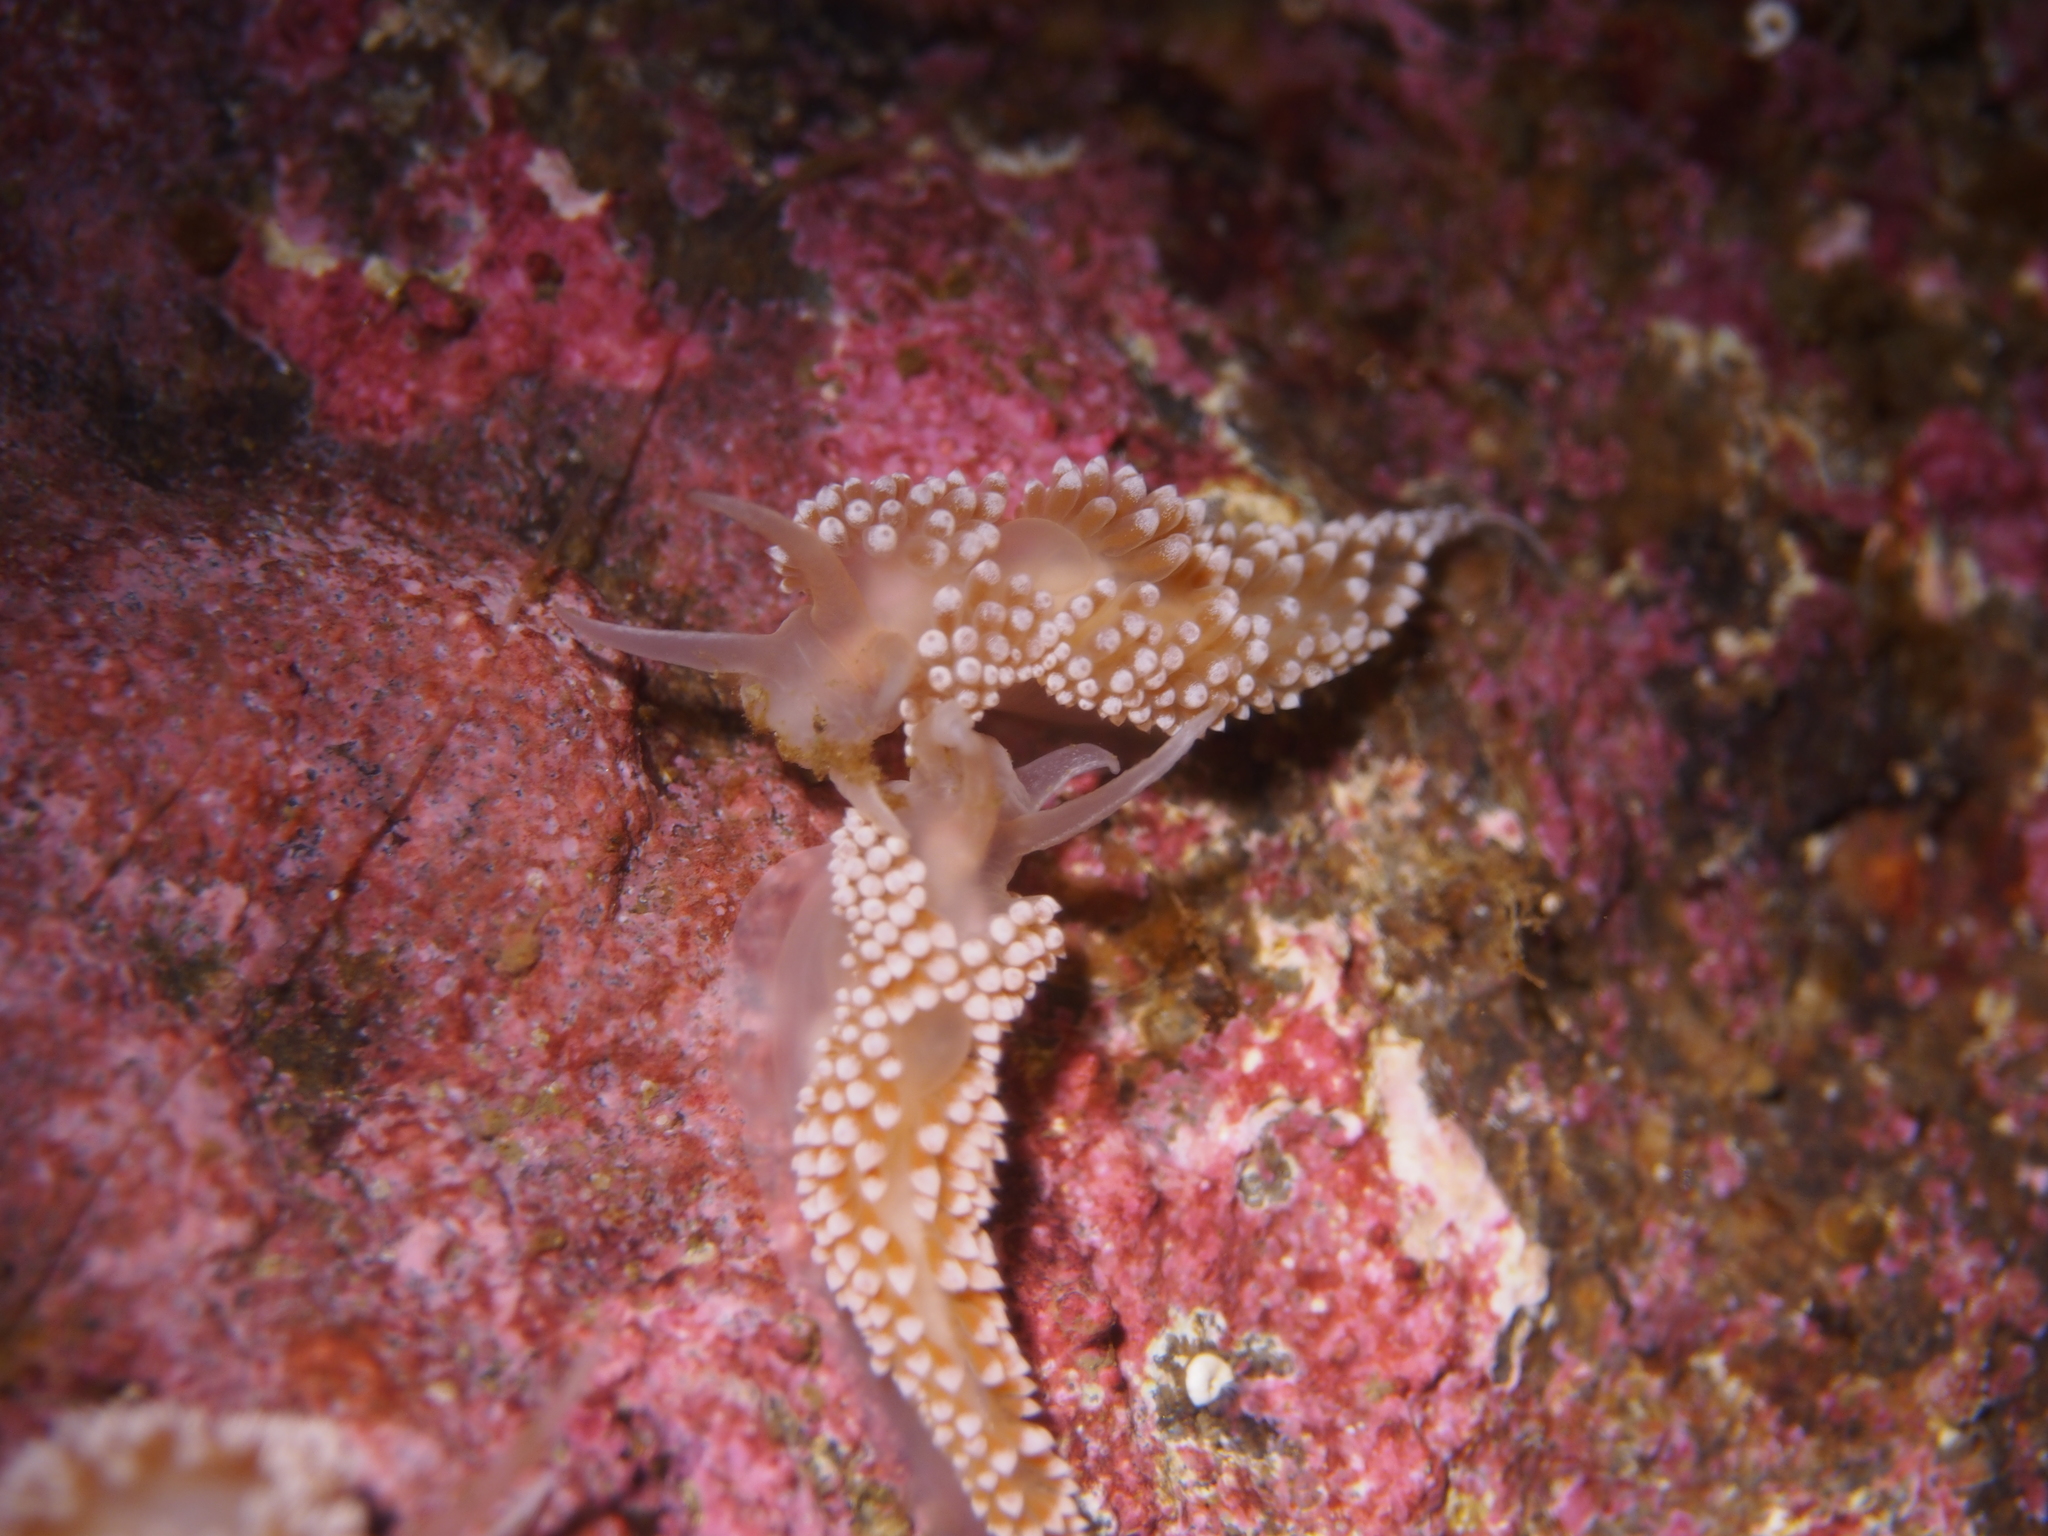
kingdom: Animalia
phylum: Mollusca
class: Gastropoda
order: Nudibranchia
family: Coryphellidae
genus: Coryphella
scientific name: Coryphella verrucosa
